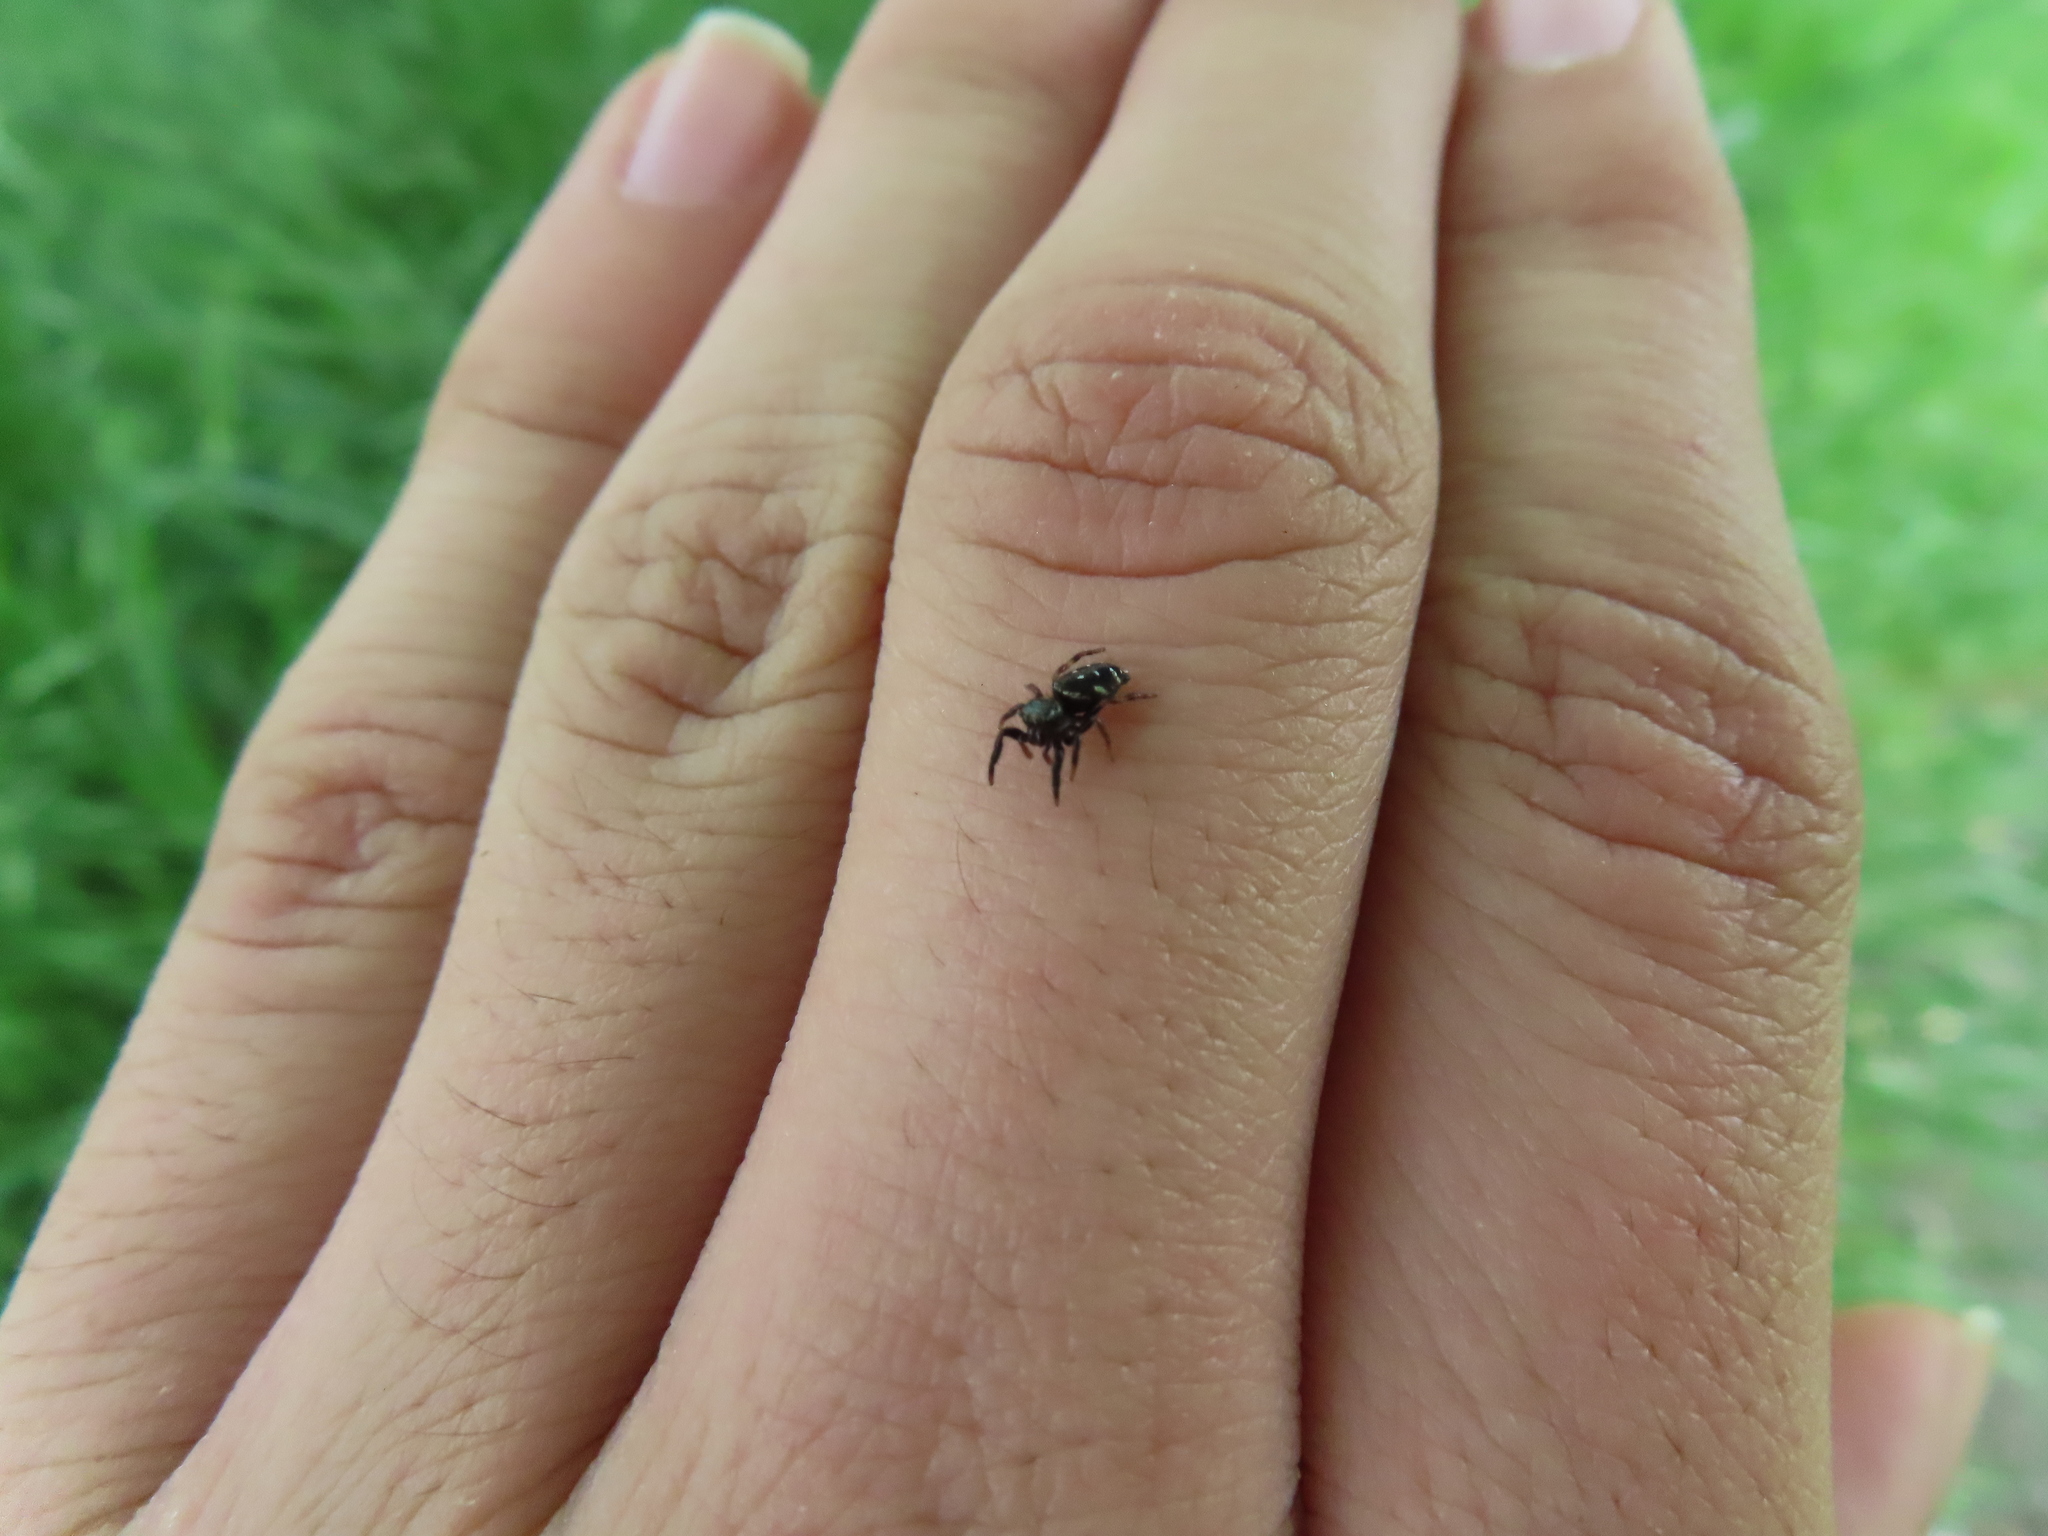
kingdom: Animalia
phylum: Arthropoda
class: Arachnida
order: Araneae
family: Salticidae
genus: Paraphidippus
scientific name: Paraphidippus aurantius
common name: Jumping spiders
